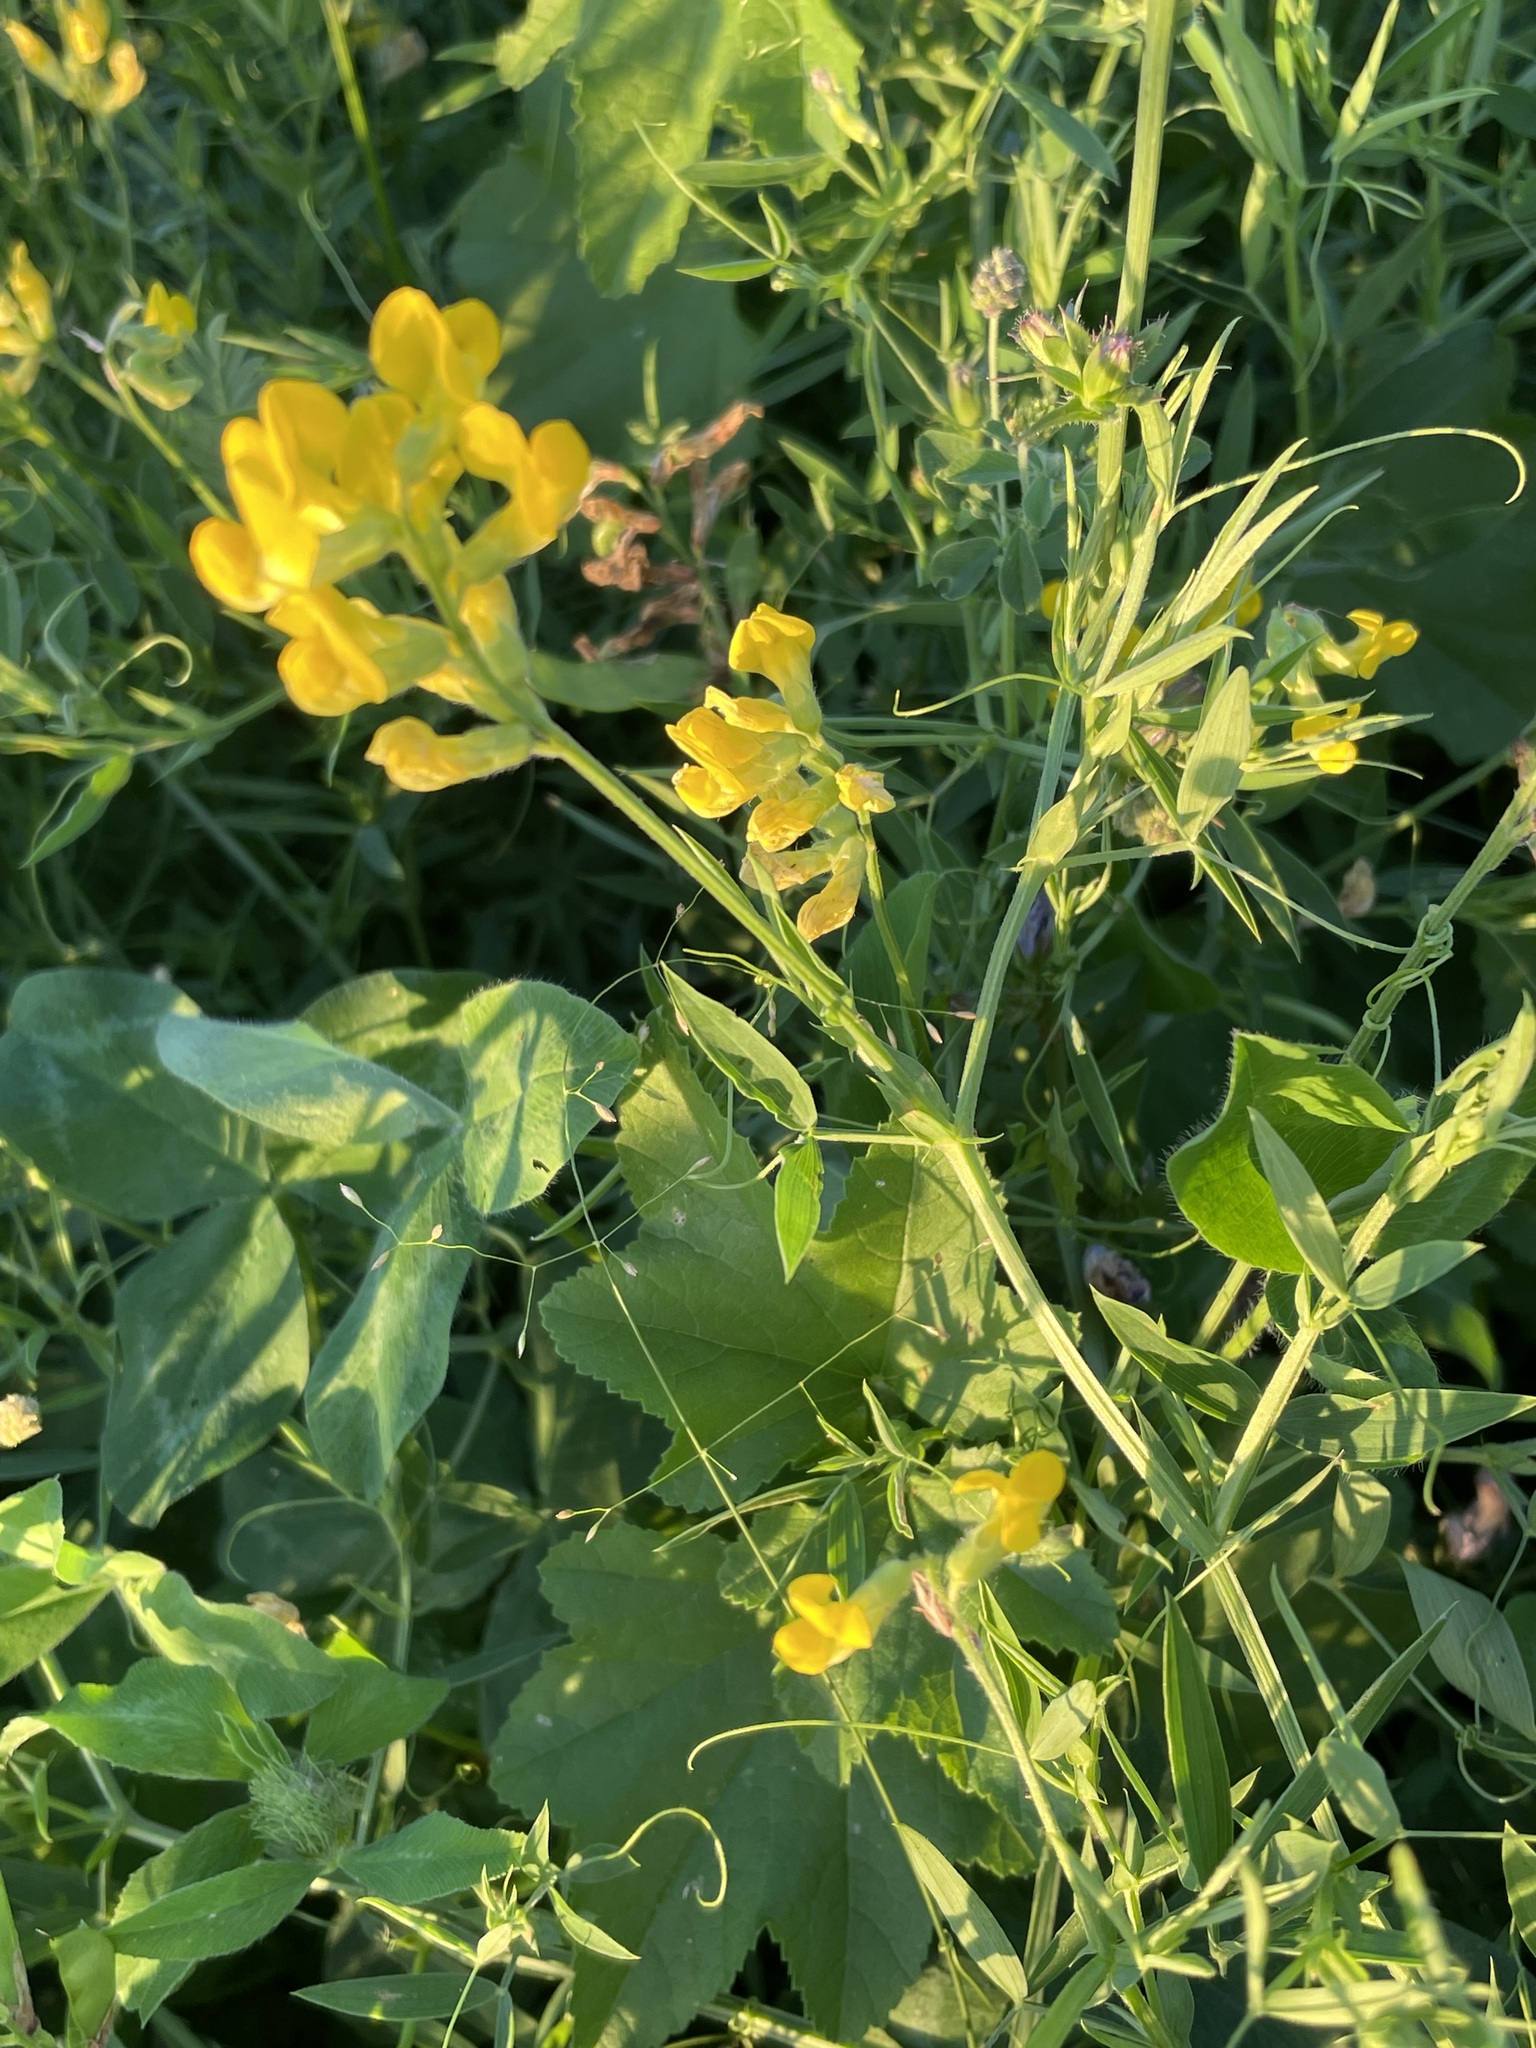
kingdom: Plantae
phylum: Tracheophyta
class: Magnoliopsida
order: Fabales
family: Fabaceae
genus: Lathyrus
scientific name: Lathyrus pratensis
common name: Meadow vetchling
